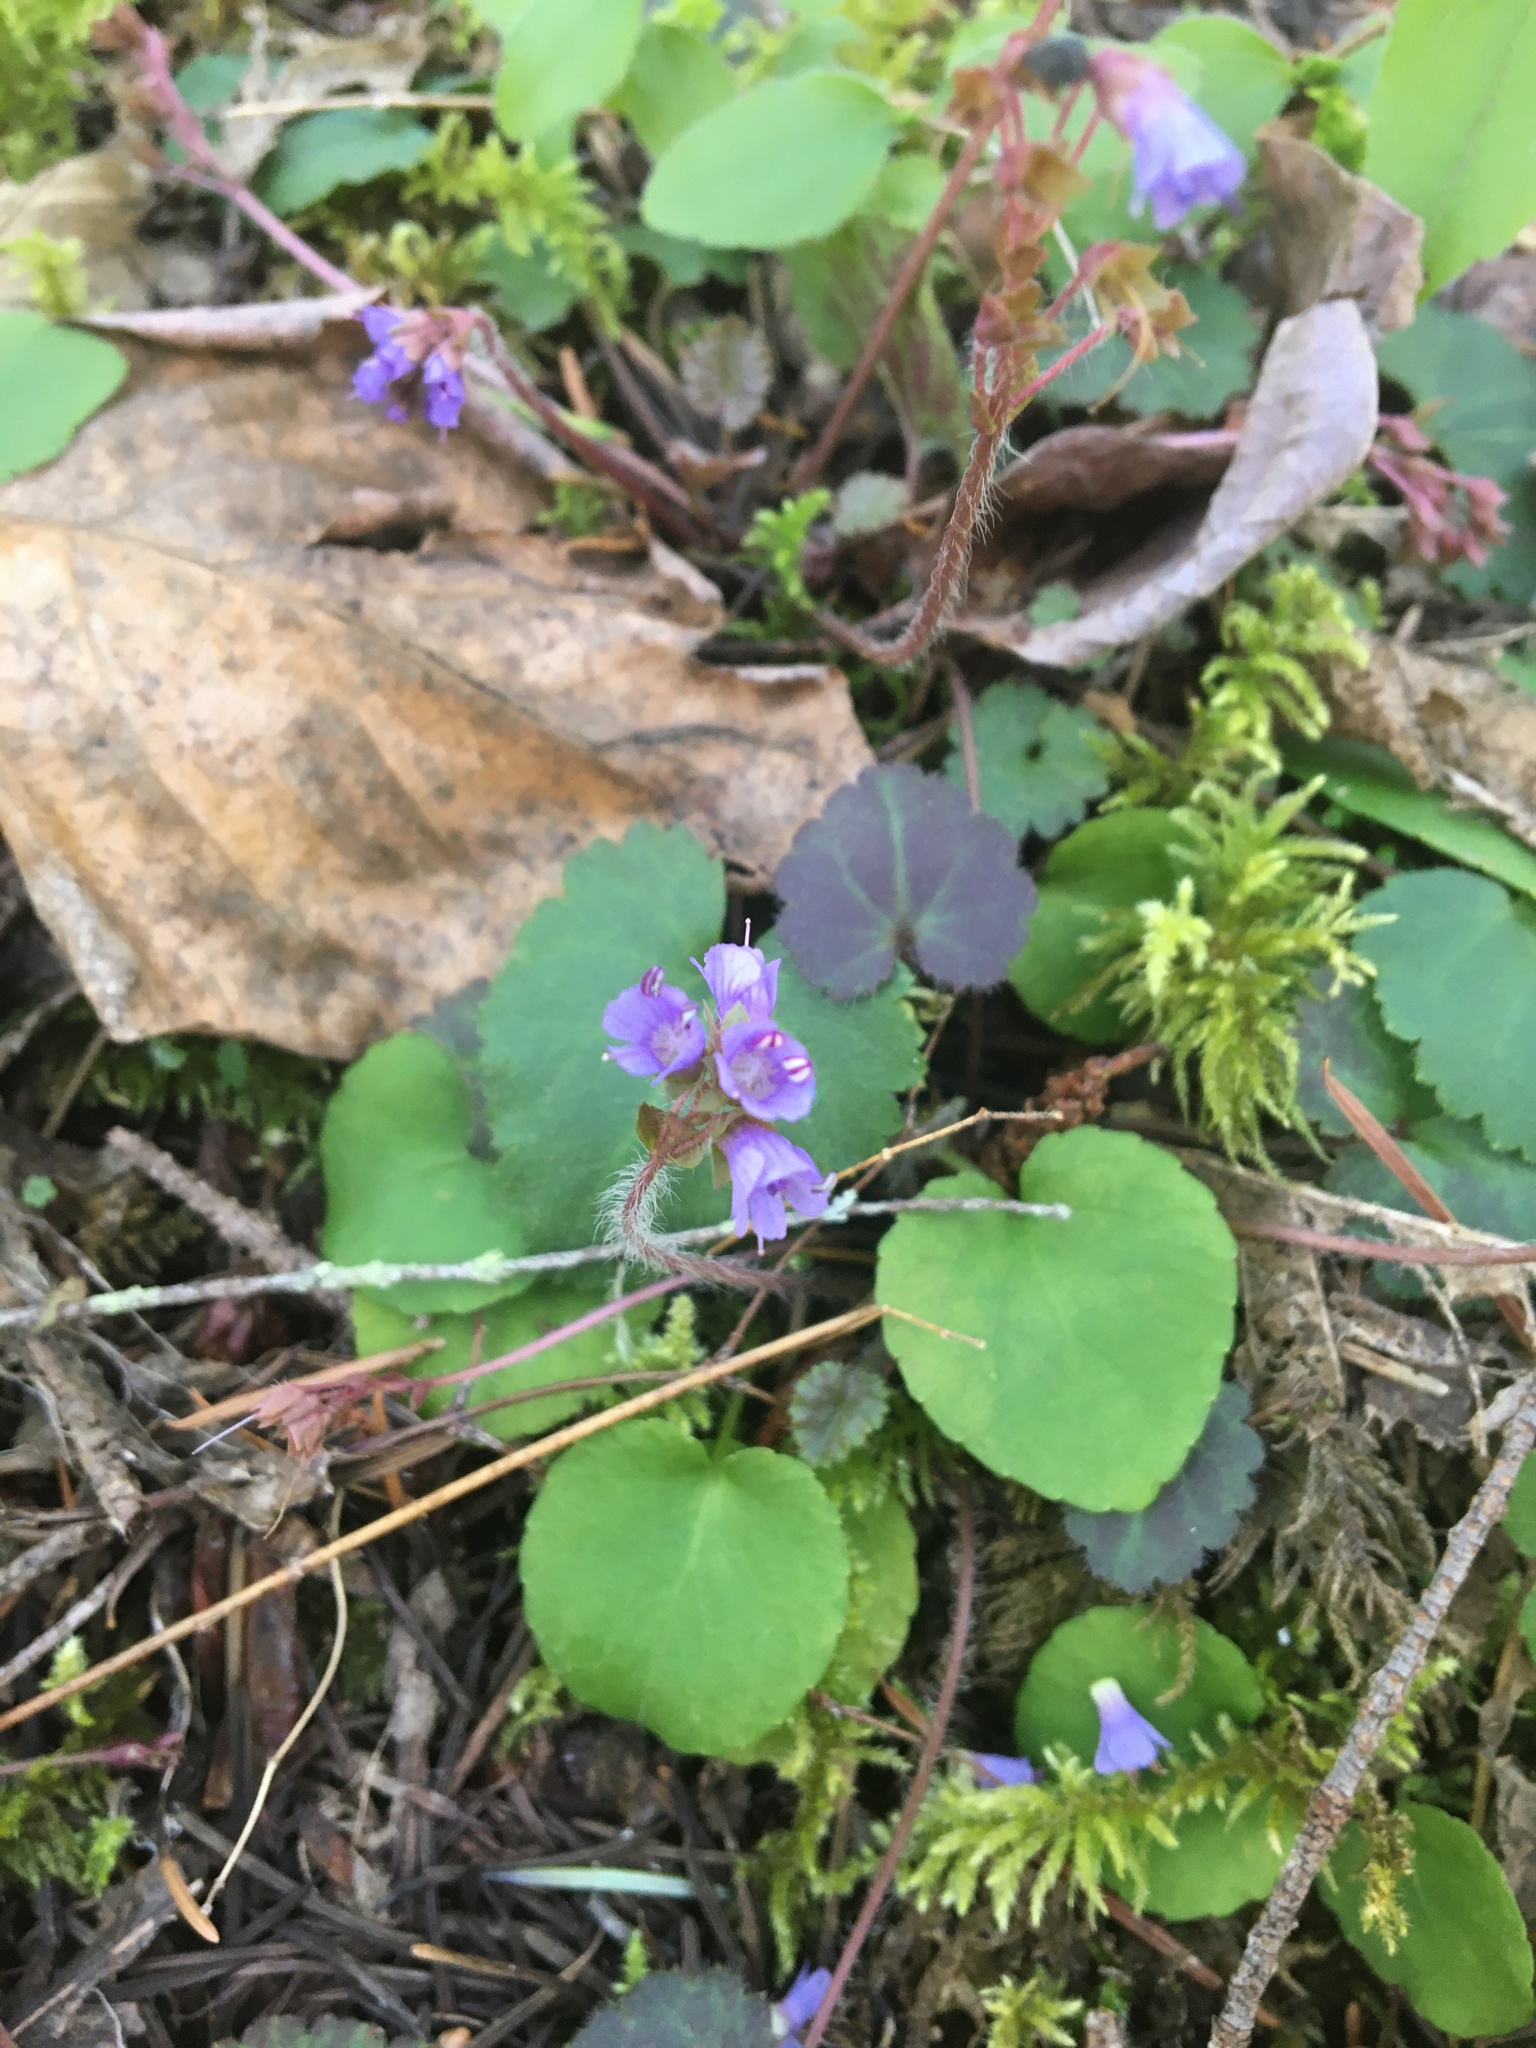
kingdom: Plantae
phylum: Tracheophyta
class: Magnoliopsida
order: Lamiales
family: Plantaginaceae
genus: Synthyris
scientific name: Synthyris reniformis
